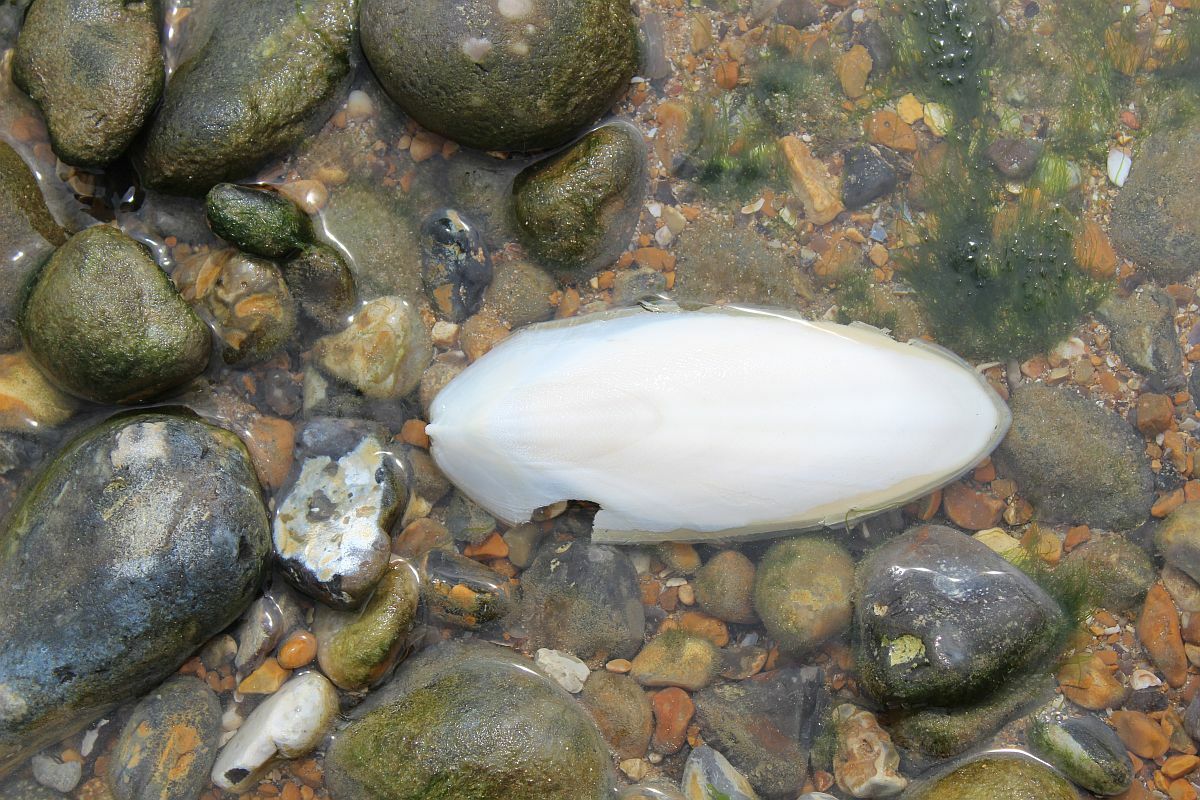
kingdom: Animalia
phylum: Mollusca
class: Cephalopoda
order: Sepiida
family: Sepiidae
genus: Sepia
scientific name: Sepia officinalis
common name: Common cuttlefish
